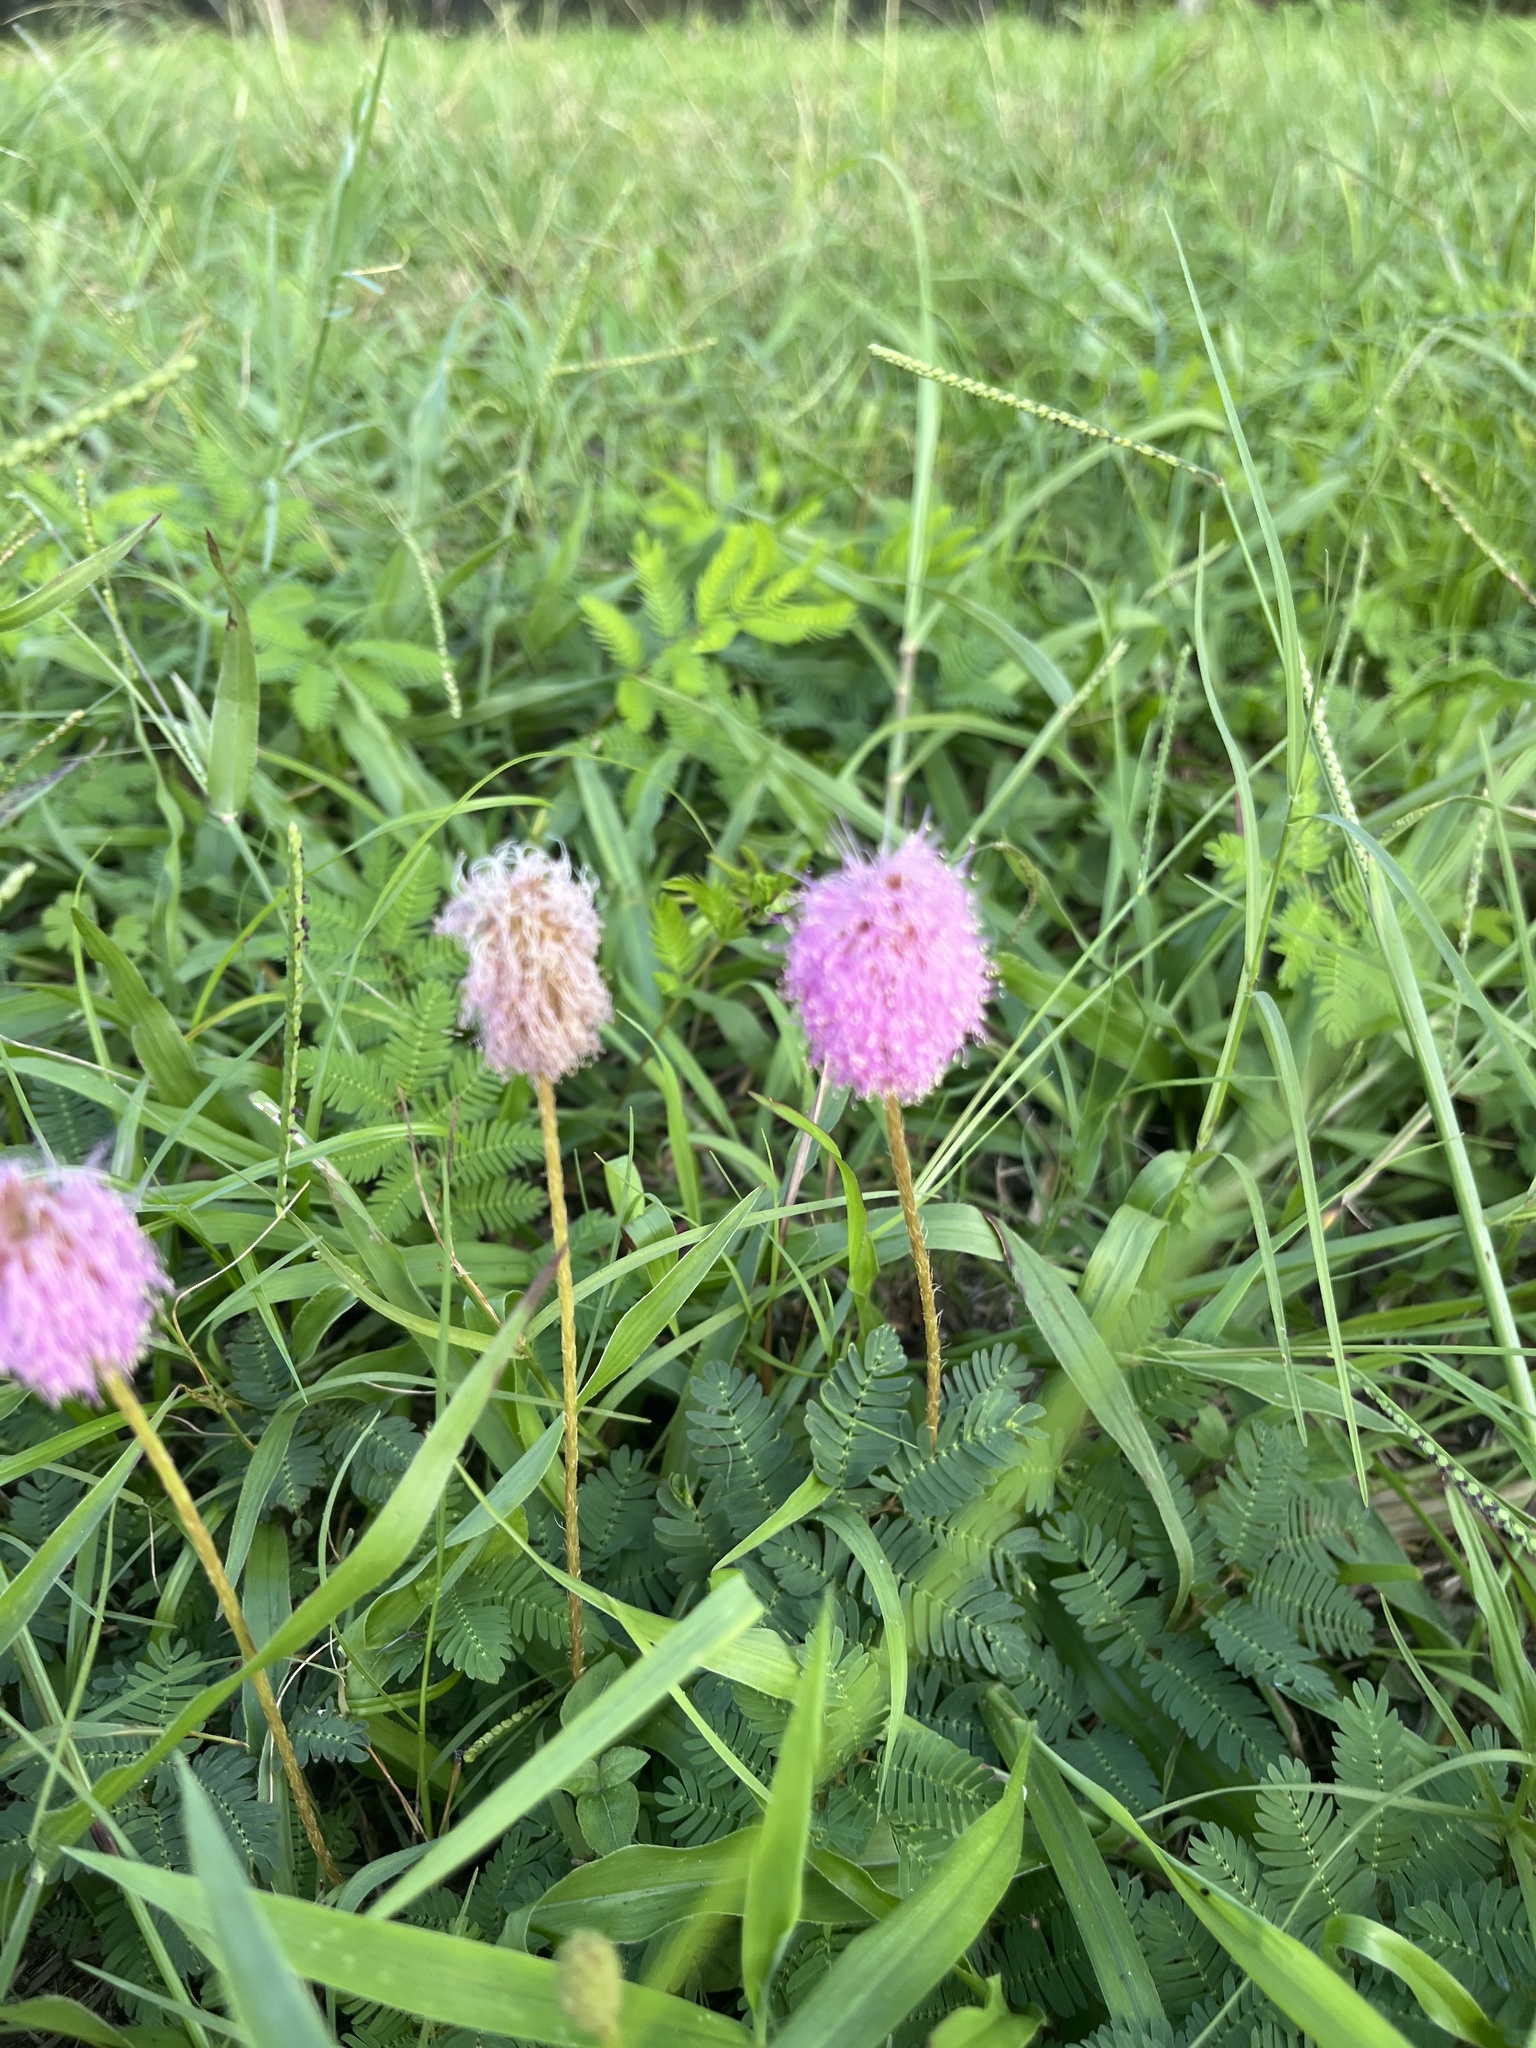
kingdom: Plantae
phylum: Tracheophyta
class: Magnoliopsida
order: Fabales
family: Fabaceae
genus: Mimosa
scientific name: Mimosa strigillosa
